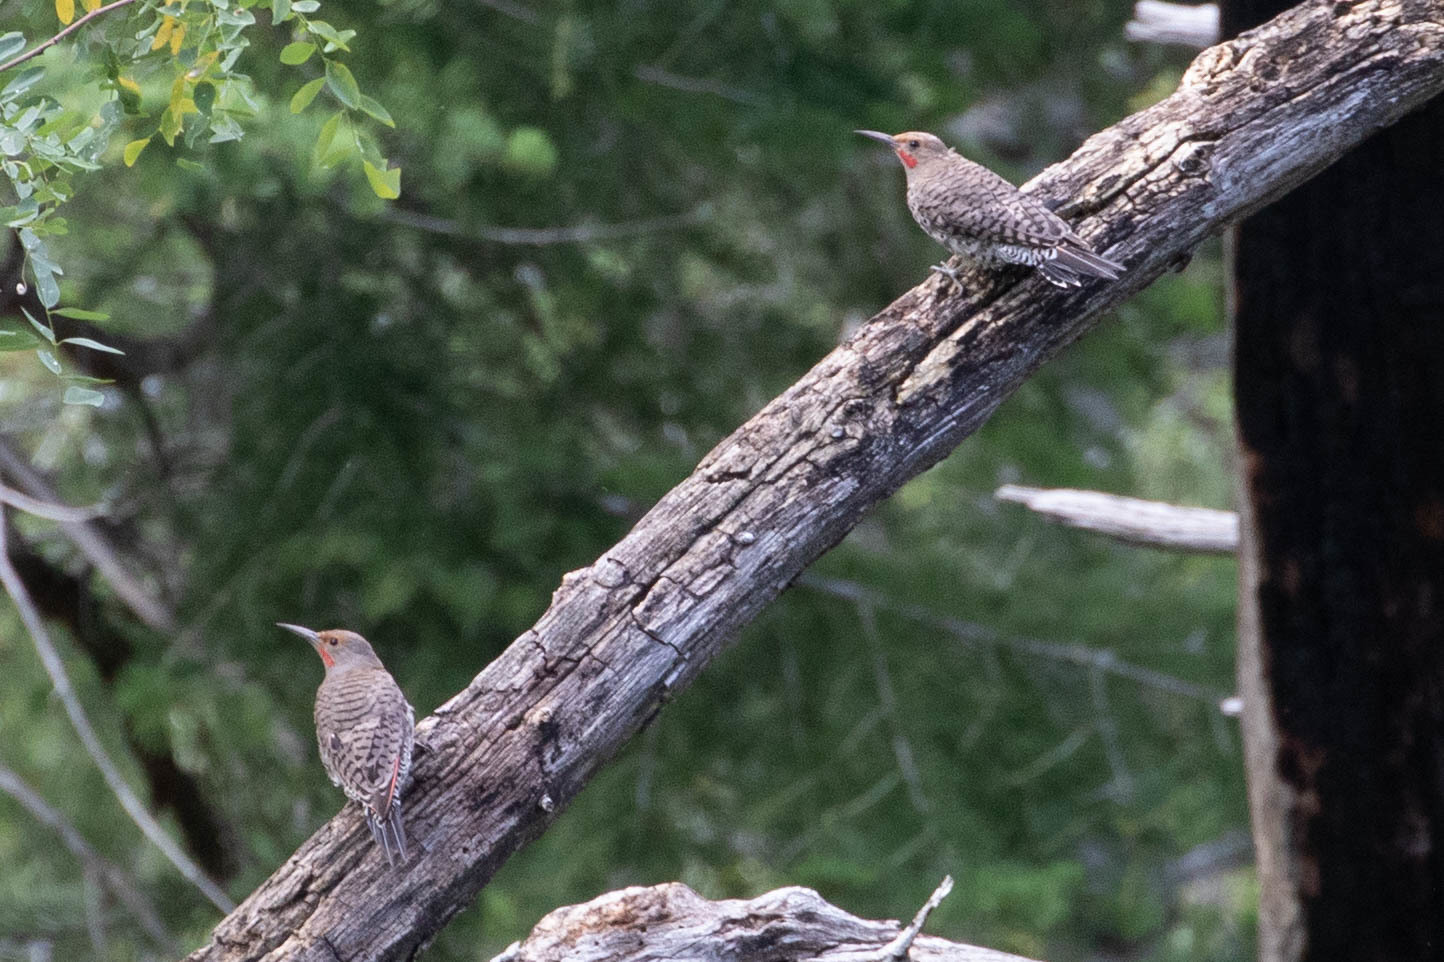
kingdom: Animalia
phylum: Chordata
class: Aves
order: Piciformes
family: Picidae
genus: Colaptes
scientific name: Colaptes auratus
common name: Northern flicker
